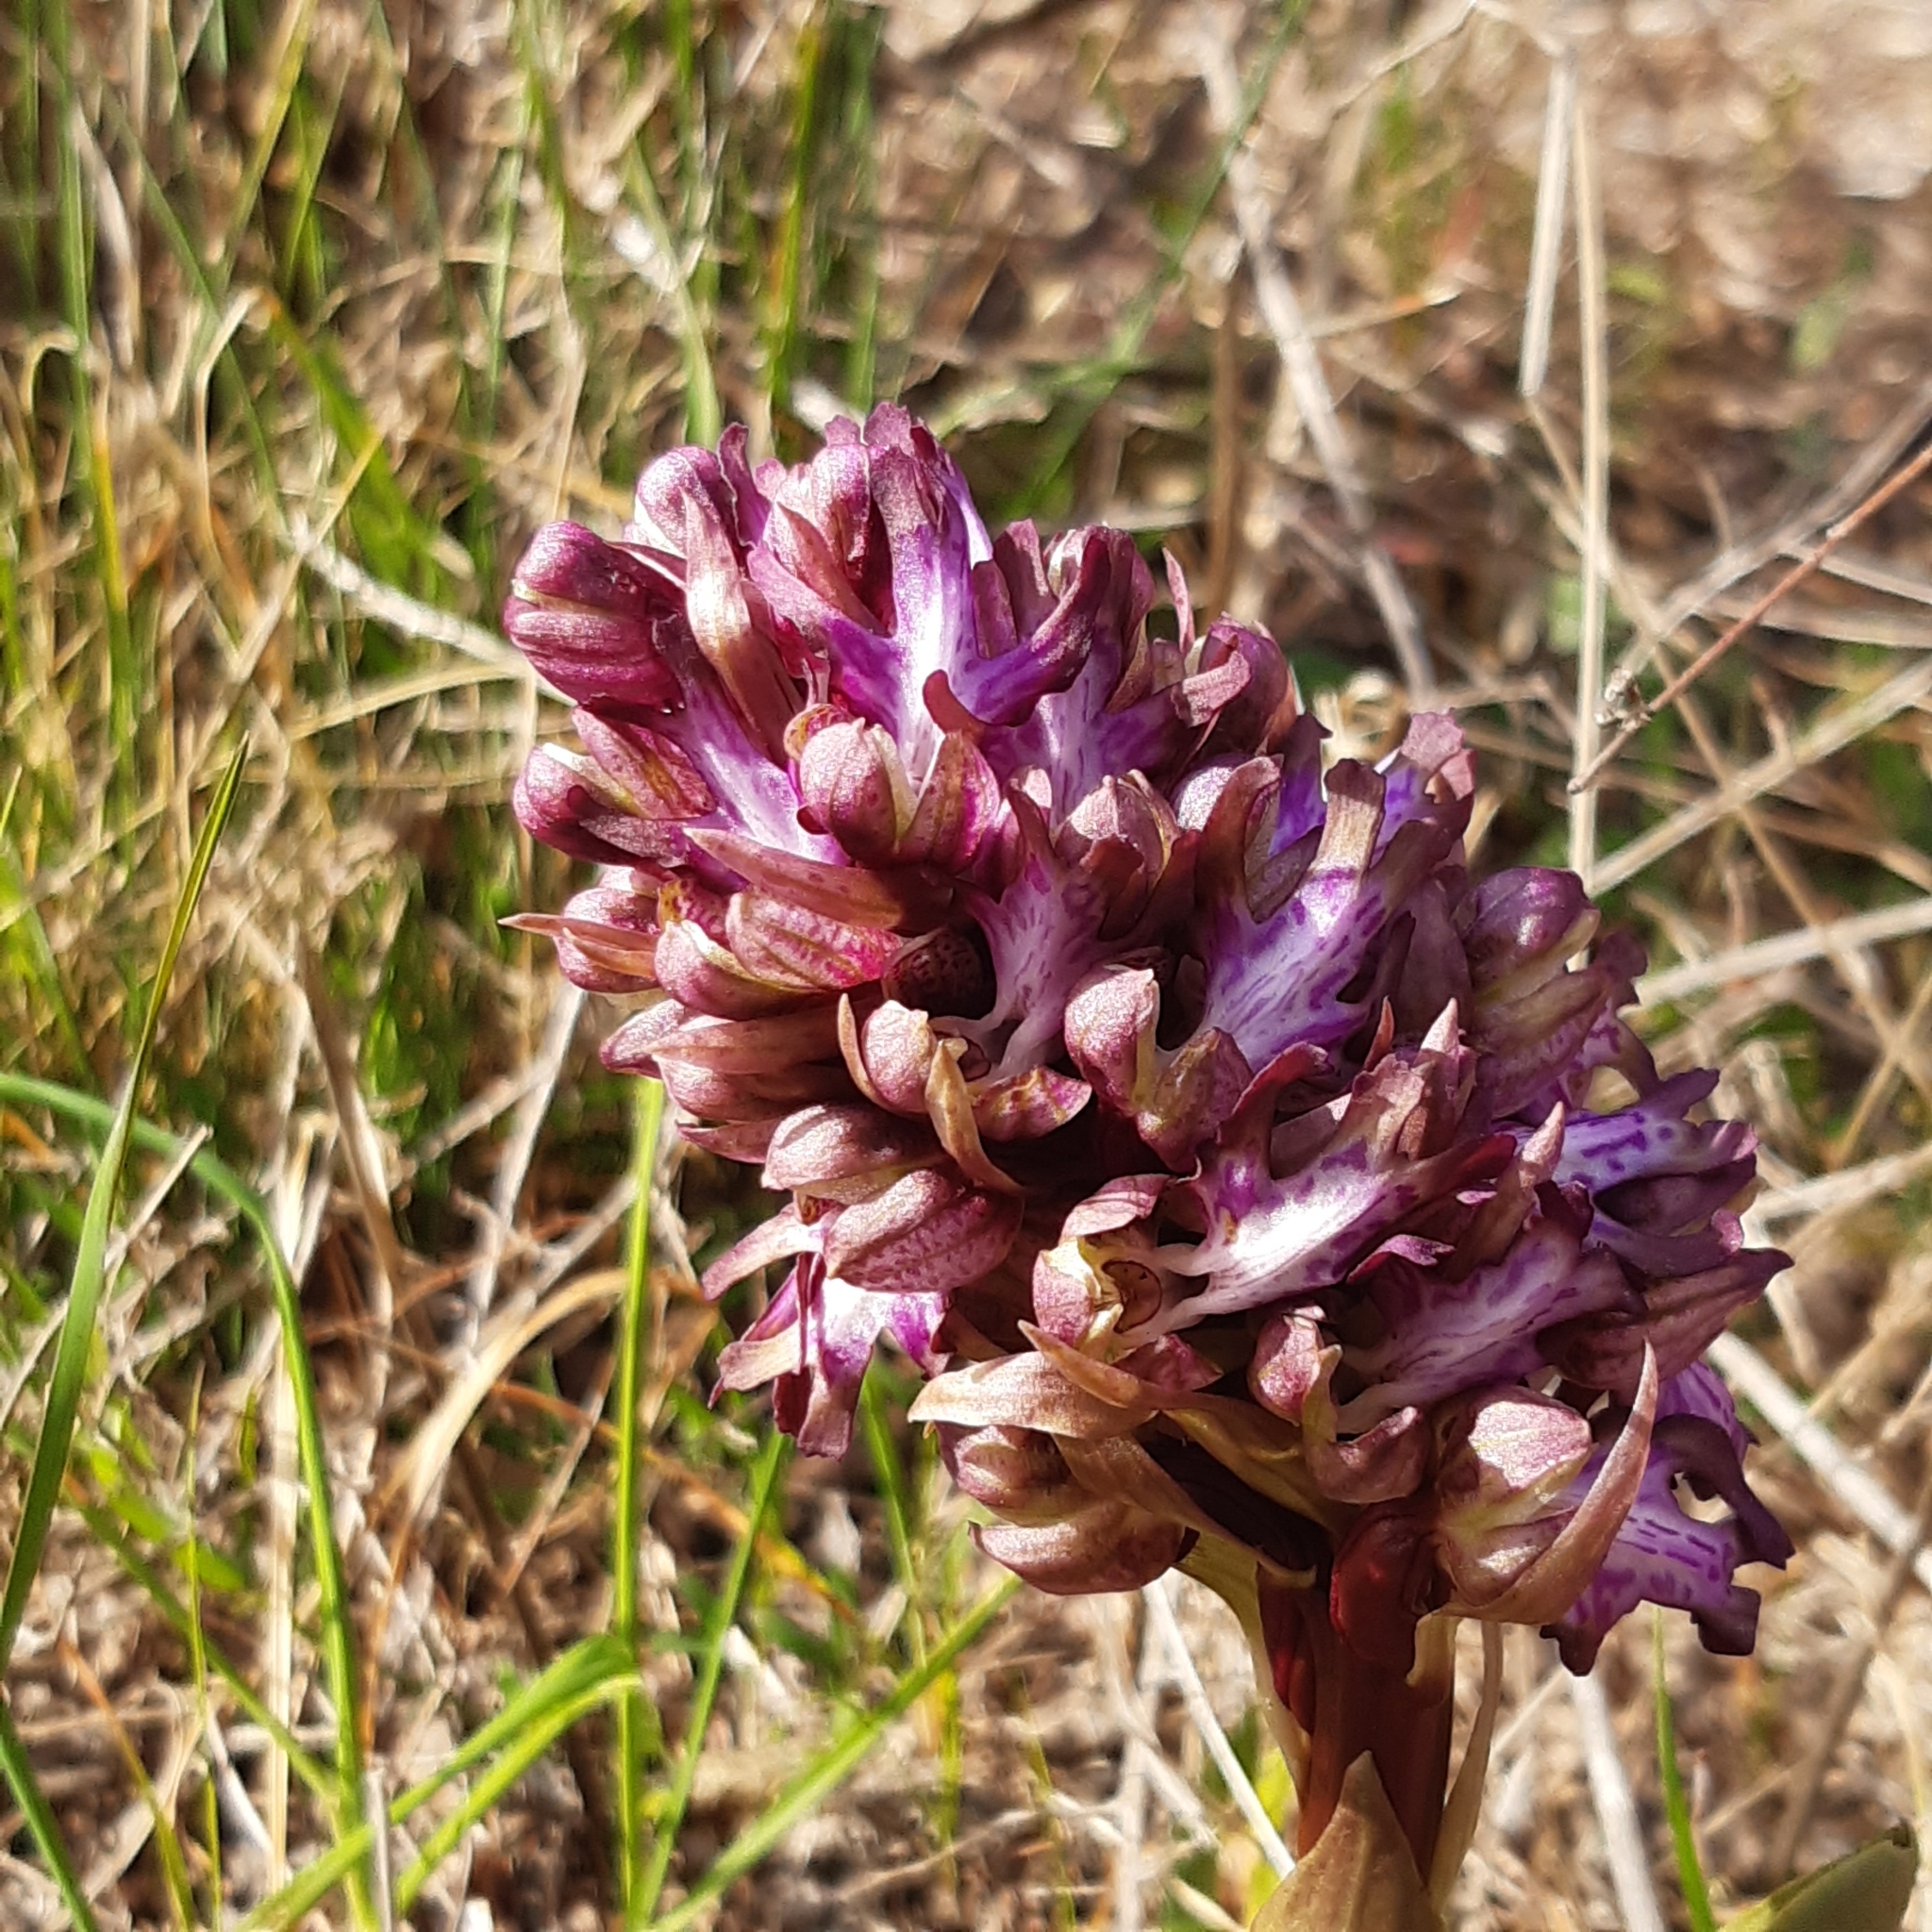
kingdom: Plantae
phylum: Tracheophyta
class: Liliopsida
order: Asparagales
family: Orchidaceae
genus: Himantoglossum
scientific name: Himantoglossum robertianum
